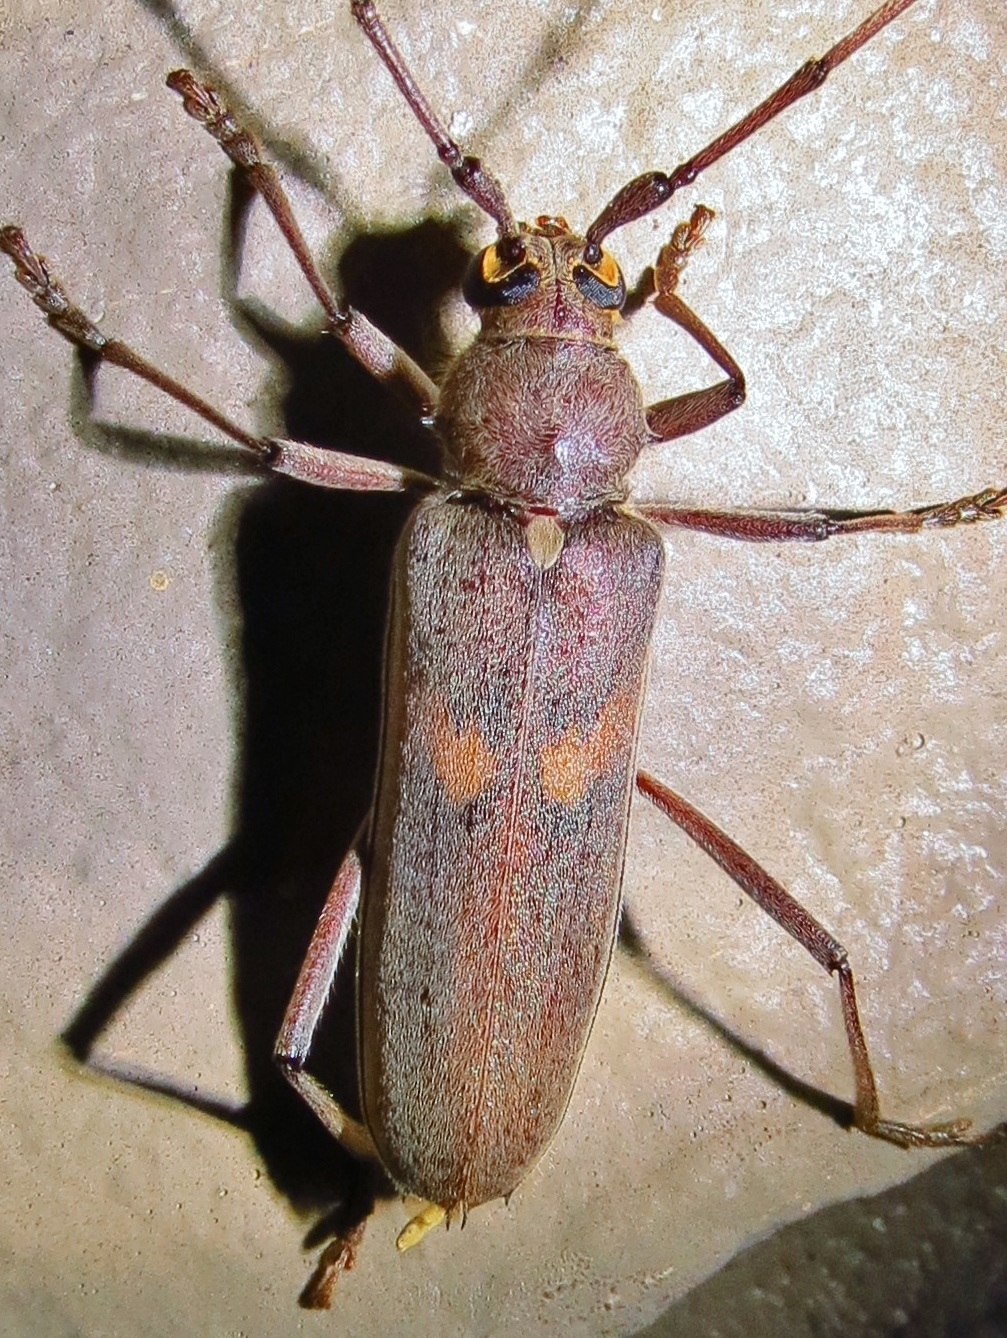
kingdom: Animalia
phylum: Arthropoda
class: Insecta
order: Coleoptera
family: Cerambycidae
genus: Knulliana
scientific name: Knulliana cincta
